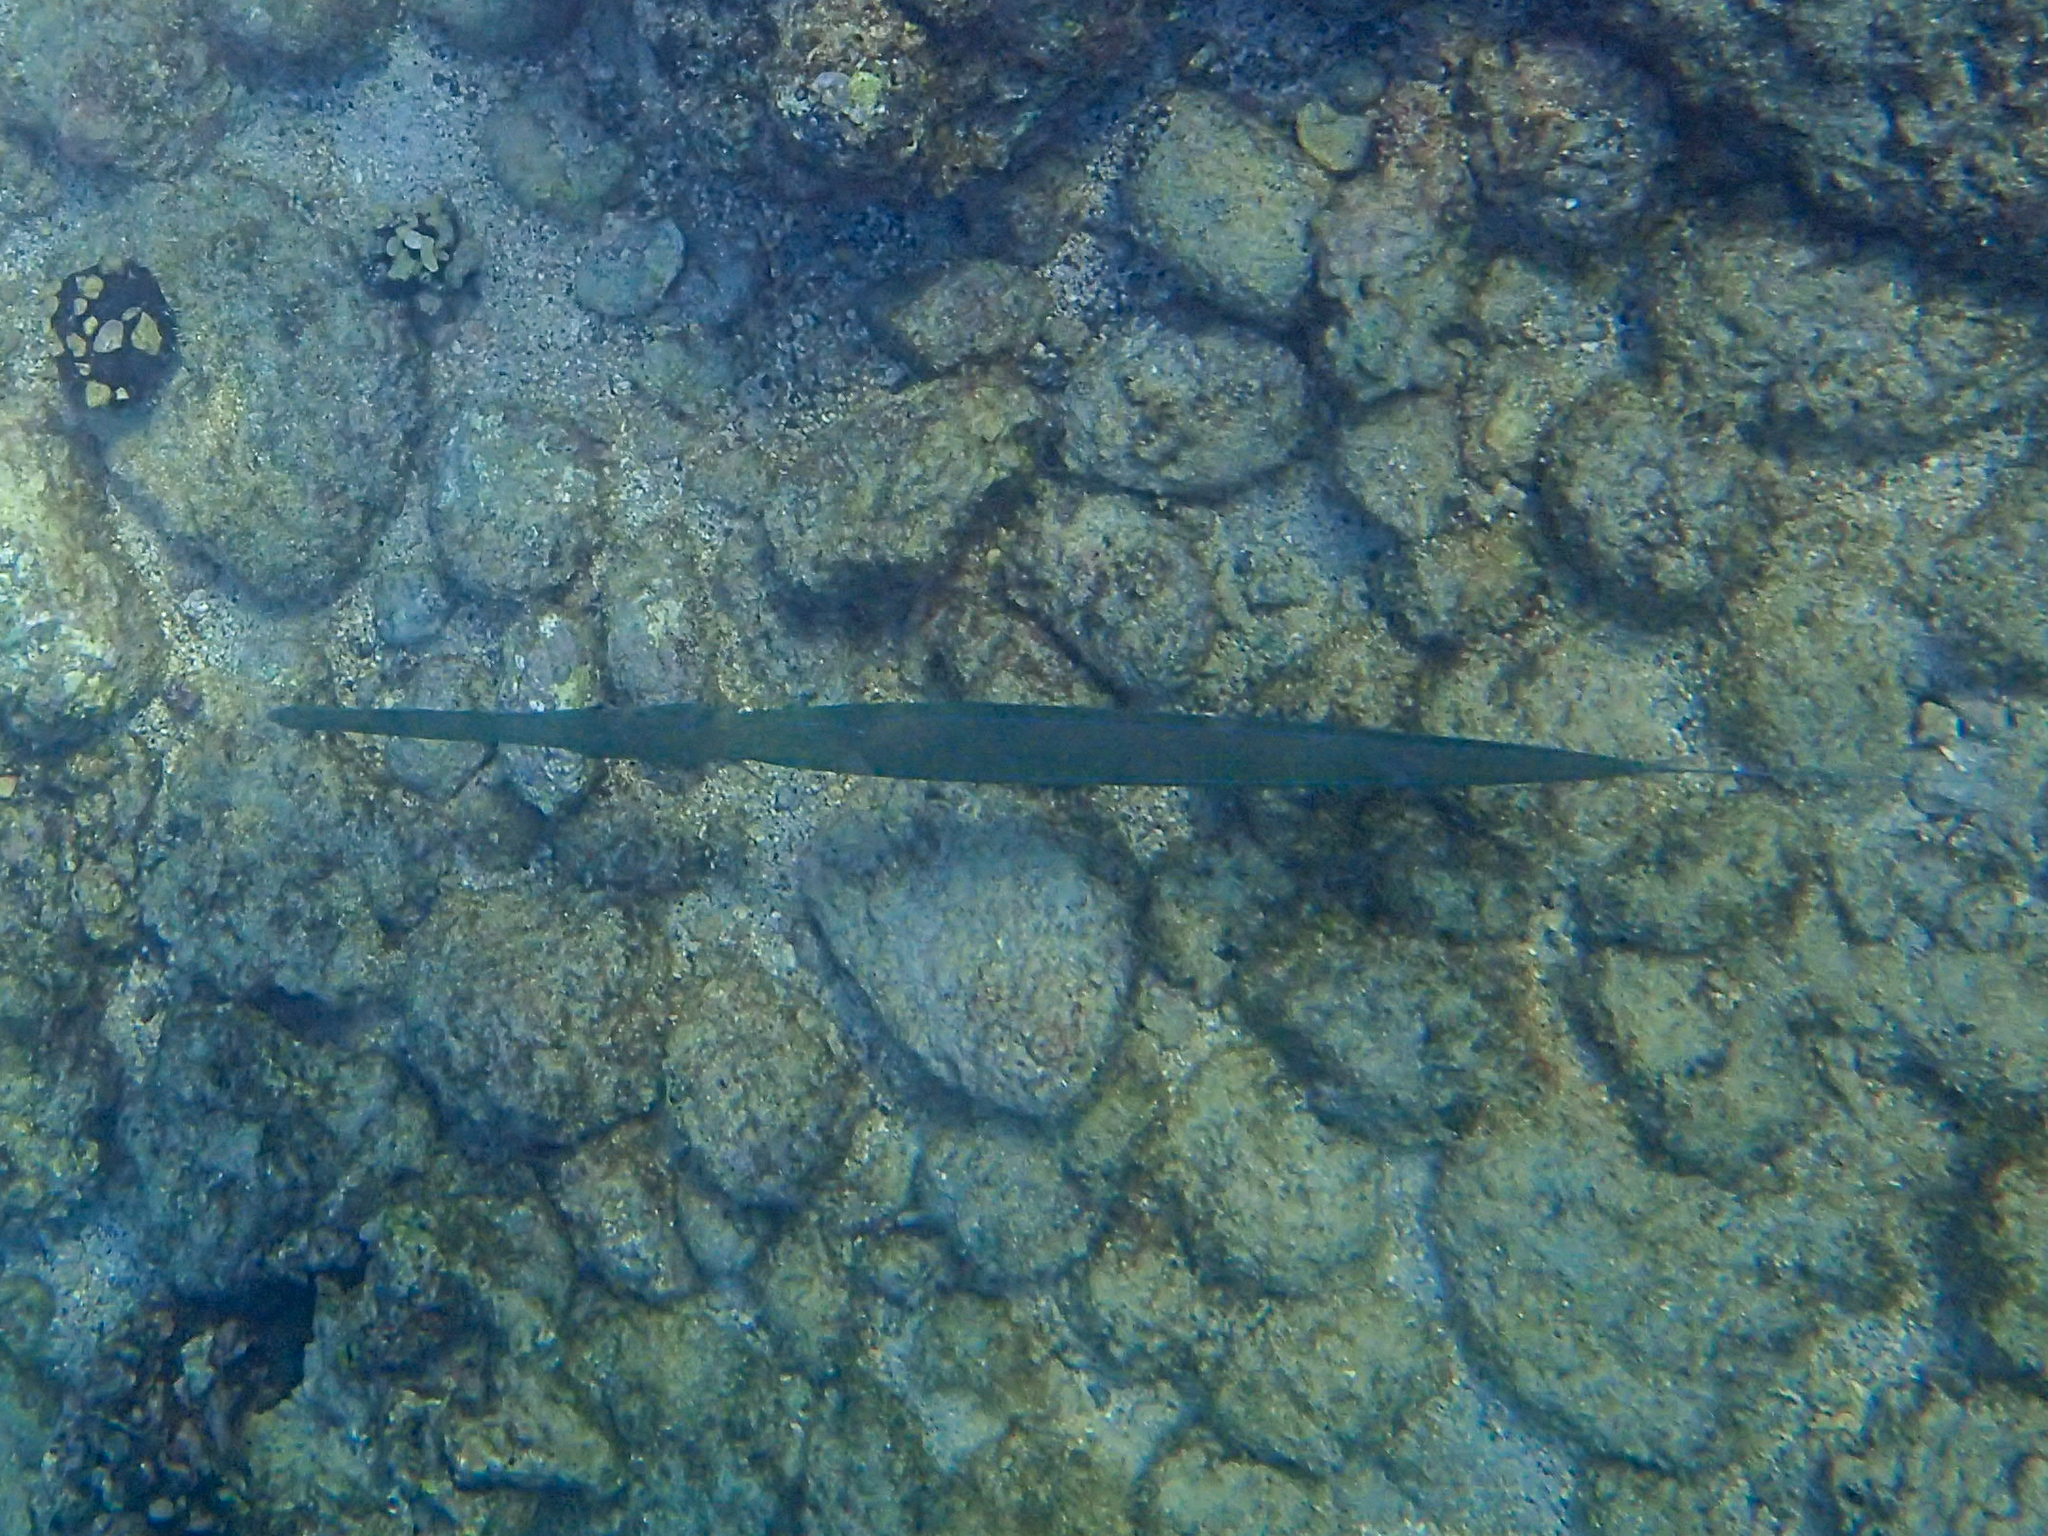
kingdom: Animalia
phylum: Chordata
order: Syngnathiformes
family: Fistulariidae
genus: Fistularia
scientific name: Fistularia commersonii
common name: Bluespotted cornetfish
